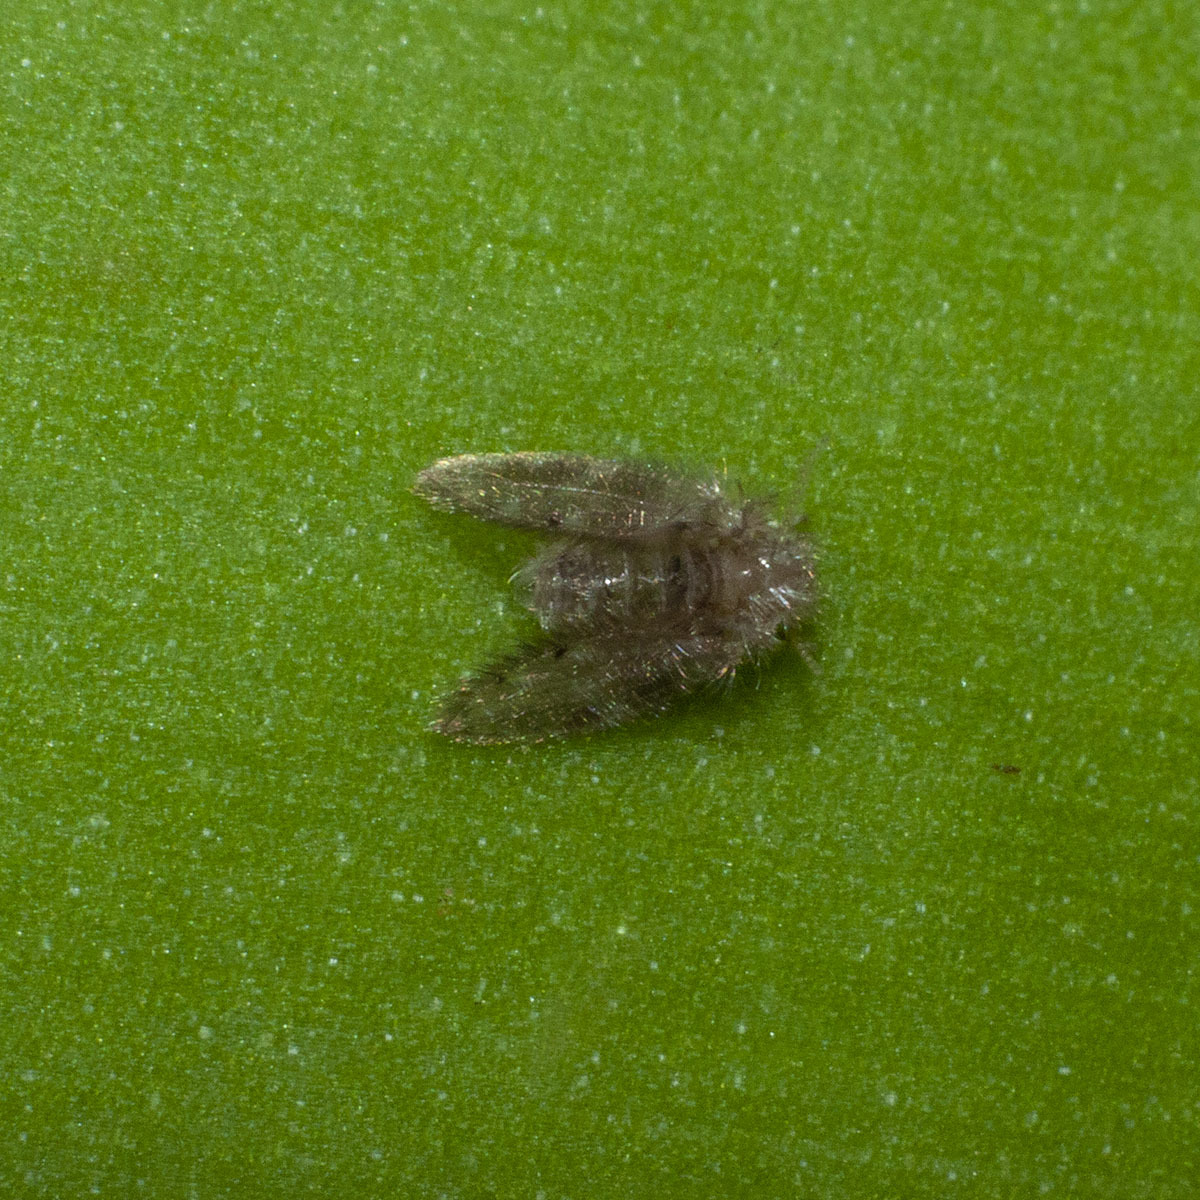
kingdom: Animalia
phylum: Arthropoda
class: Insecta
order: Diptera
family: Psychodidae
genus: Clogmia
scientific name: Clogmia albipunctatus
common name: White-spotted moth fly
